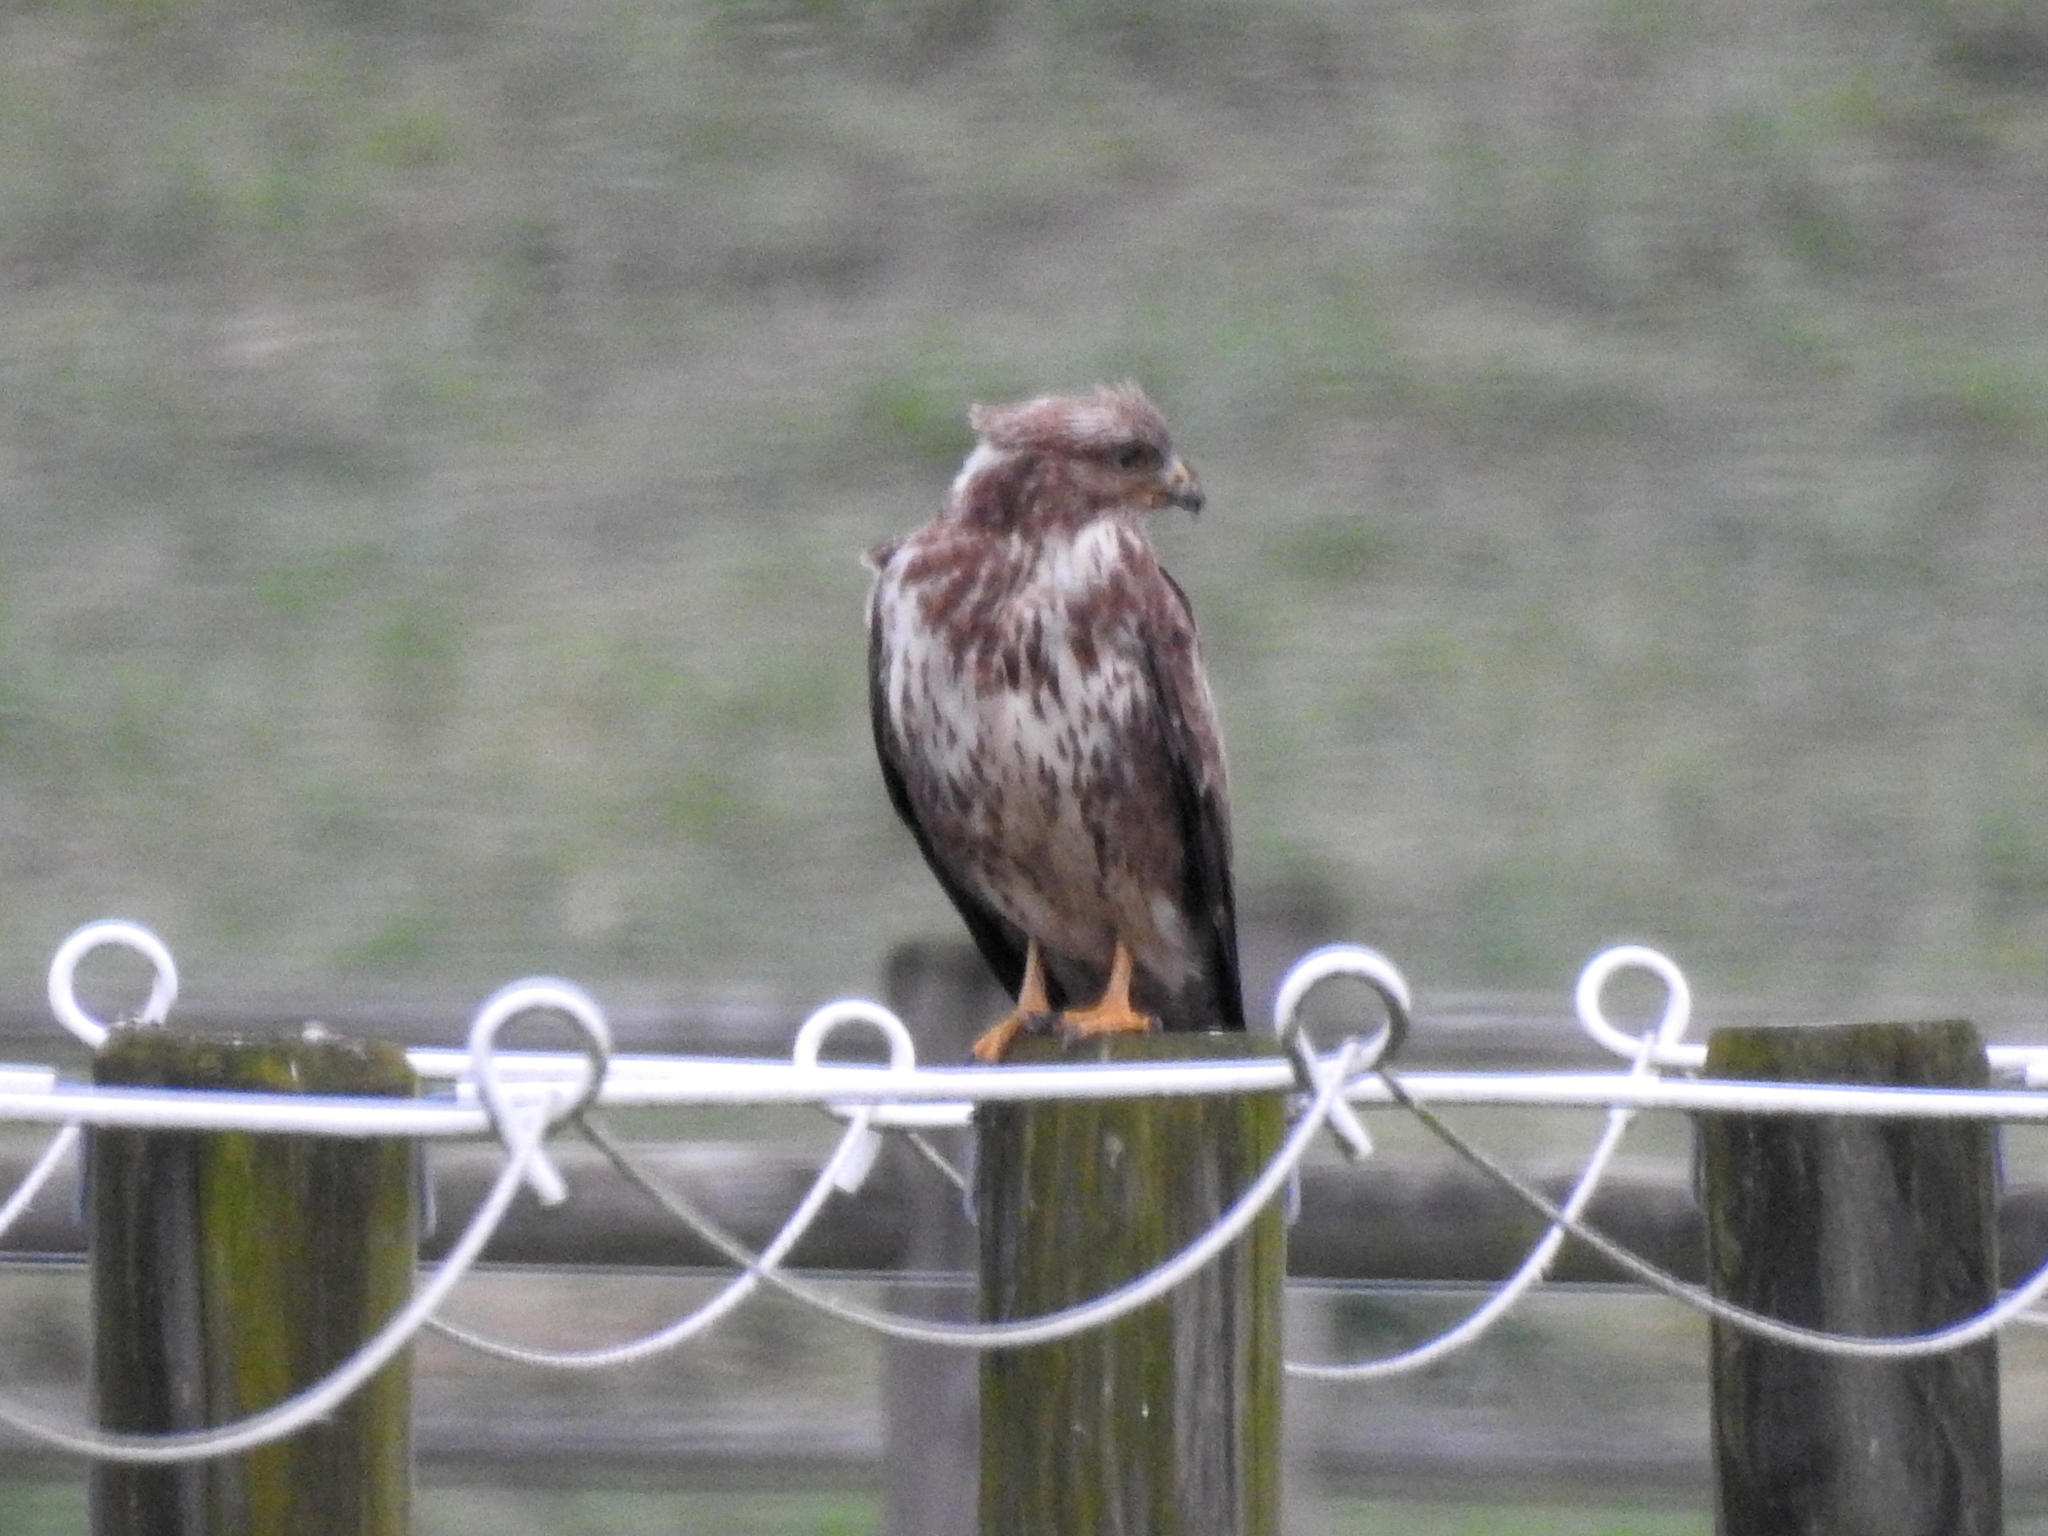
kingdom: Animalia
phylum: Chordata
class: Aves
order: Accipitriformes
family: Accipitridae
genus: Buteo
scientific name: Buteo buteo
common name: Common buzzard
